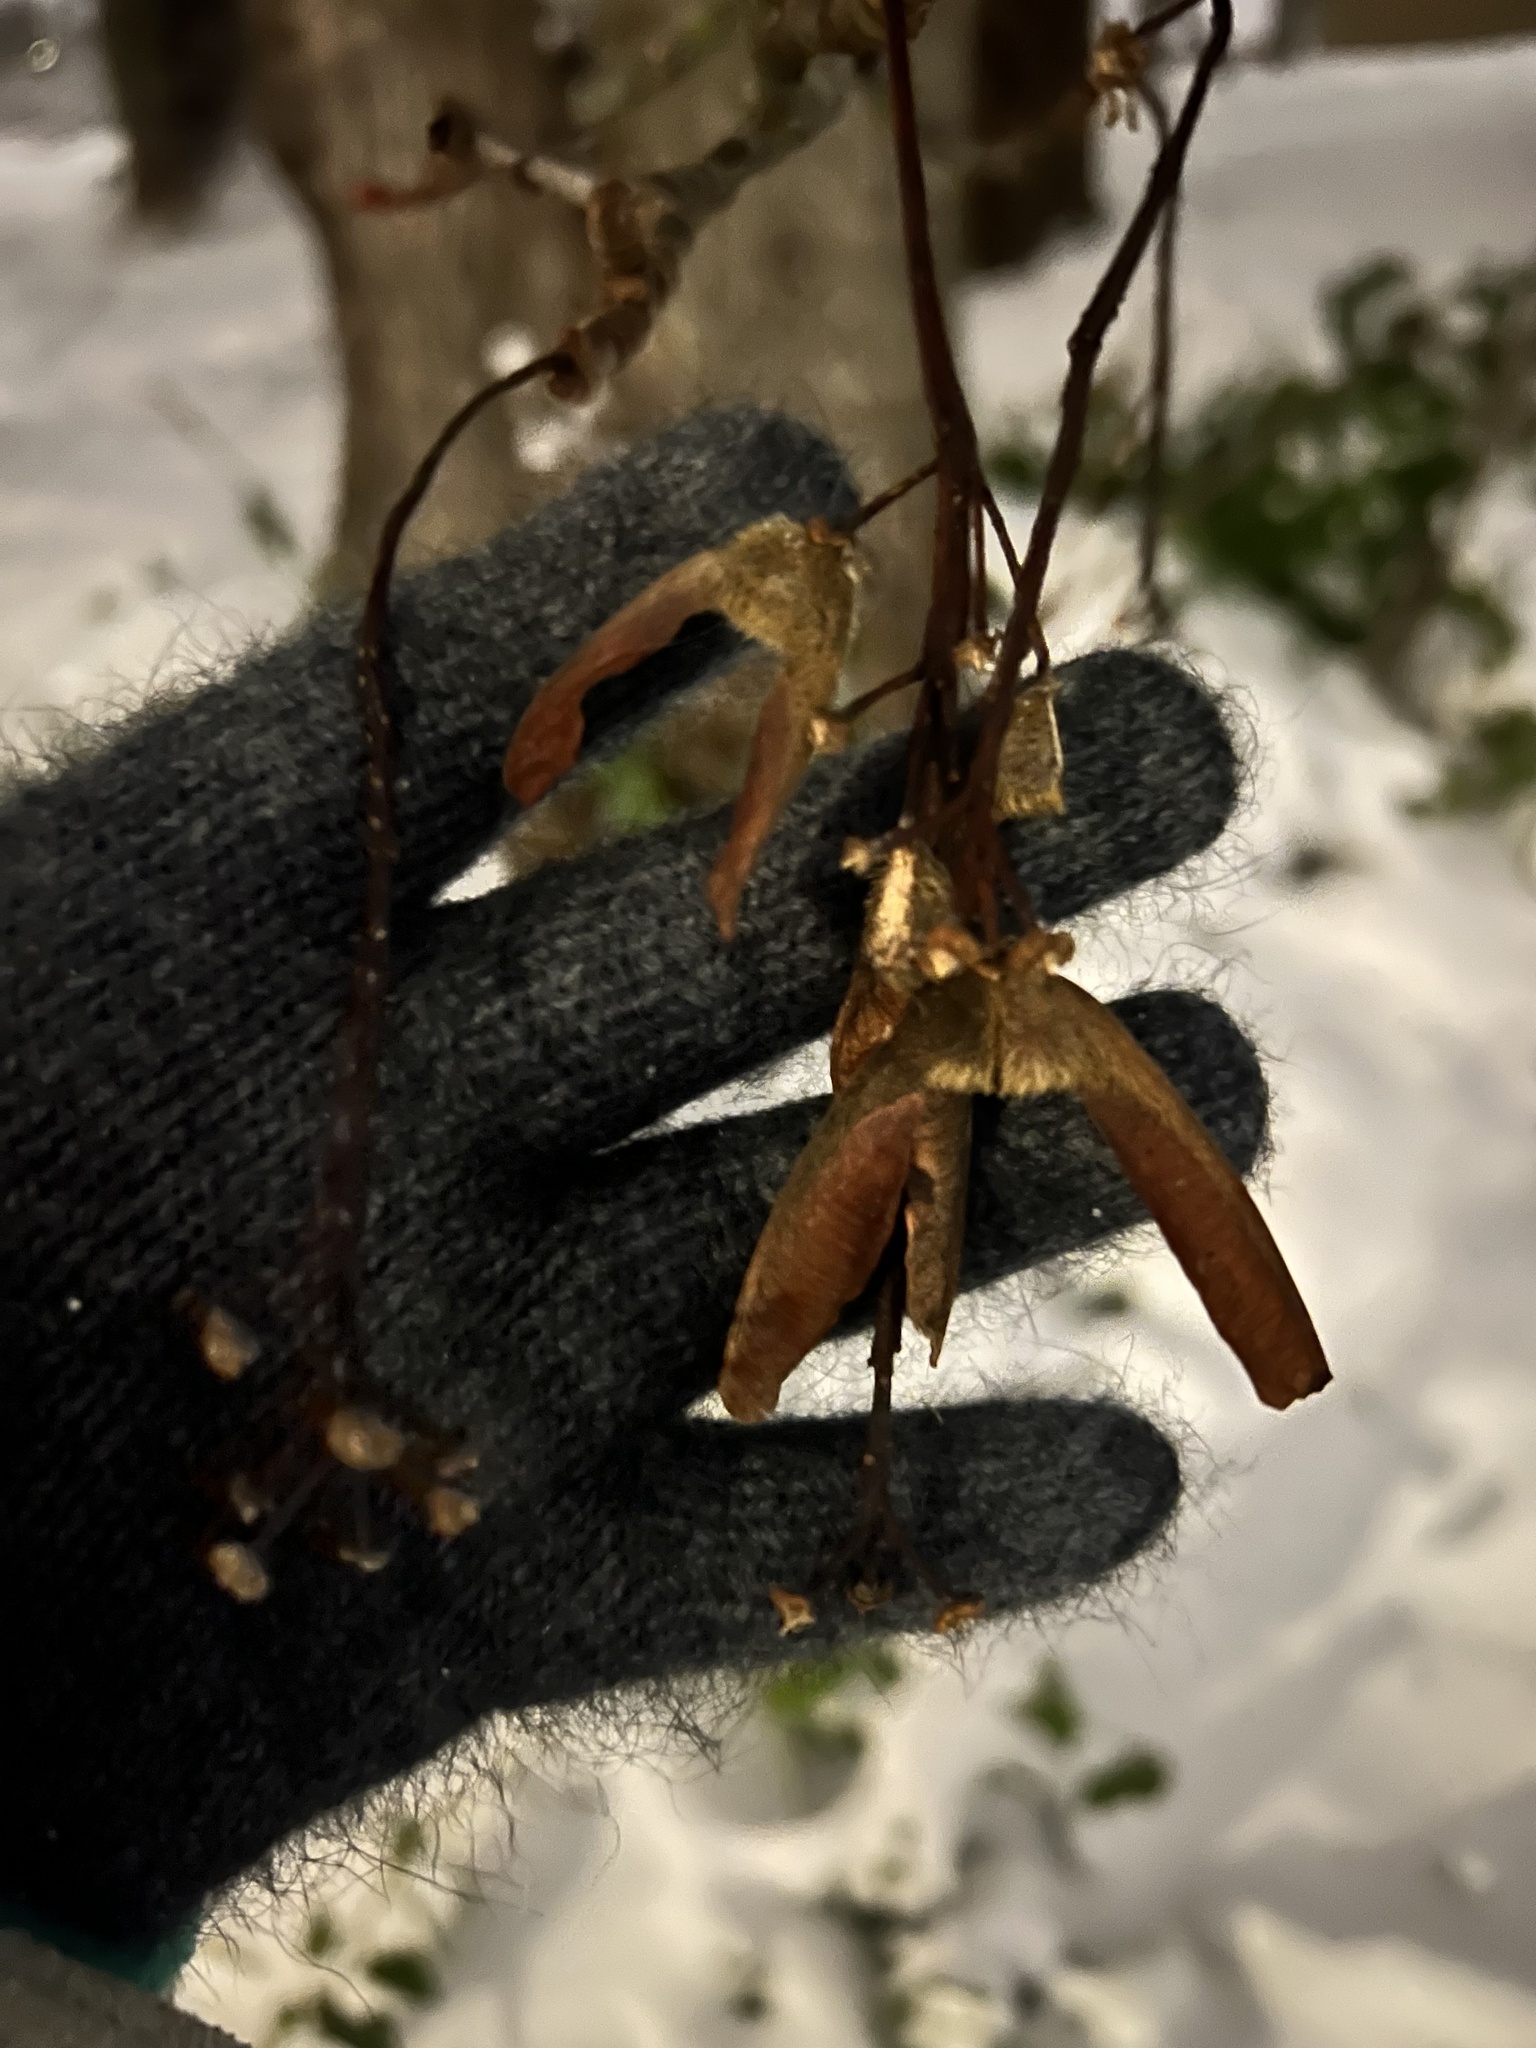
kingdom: Plantae
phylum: Tracheophyta
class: Magnoliopsida
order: Sapindales
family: Sapindaceae
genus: Acer
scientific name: Acer macrophyllum
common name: Oregon maple
